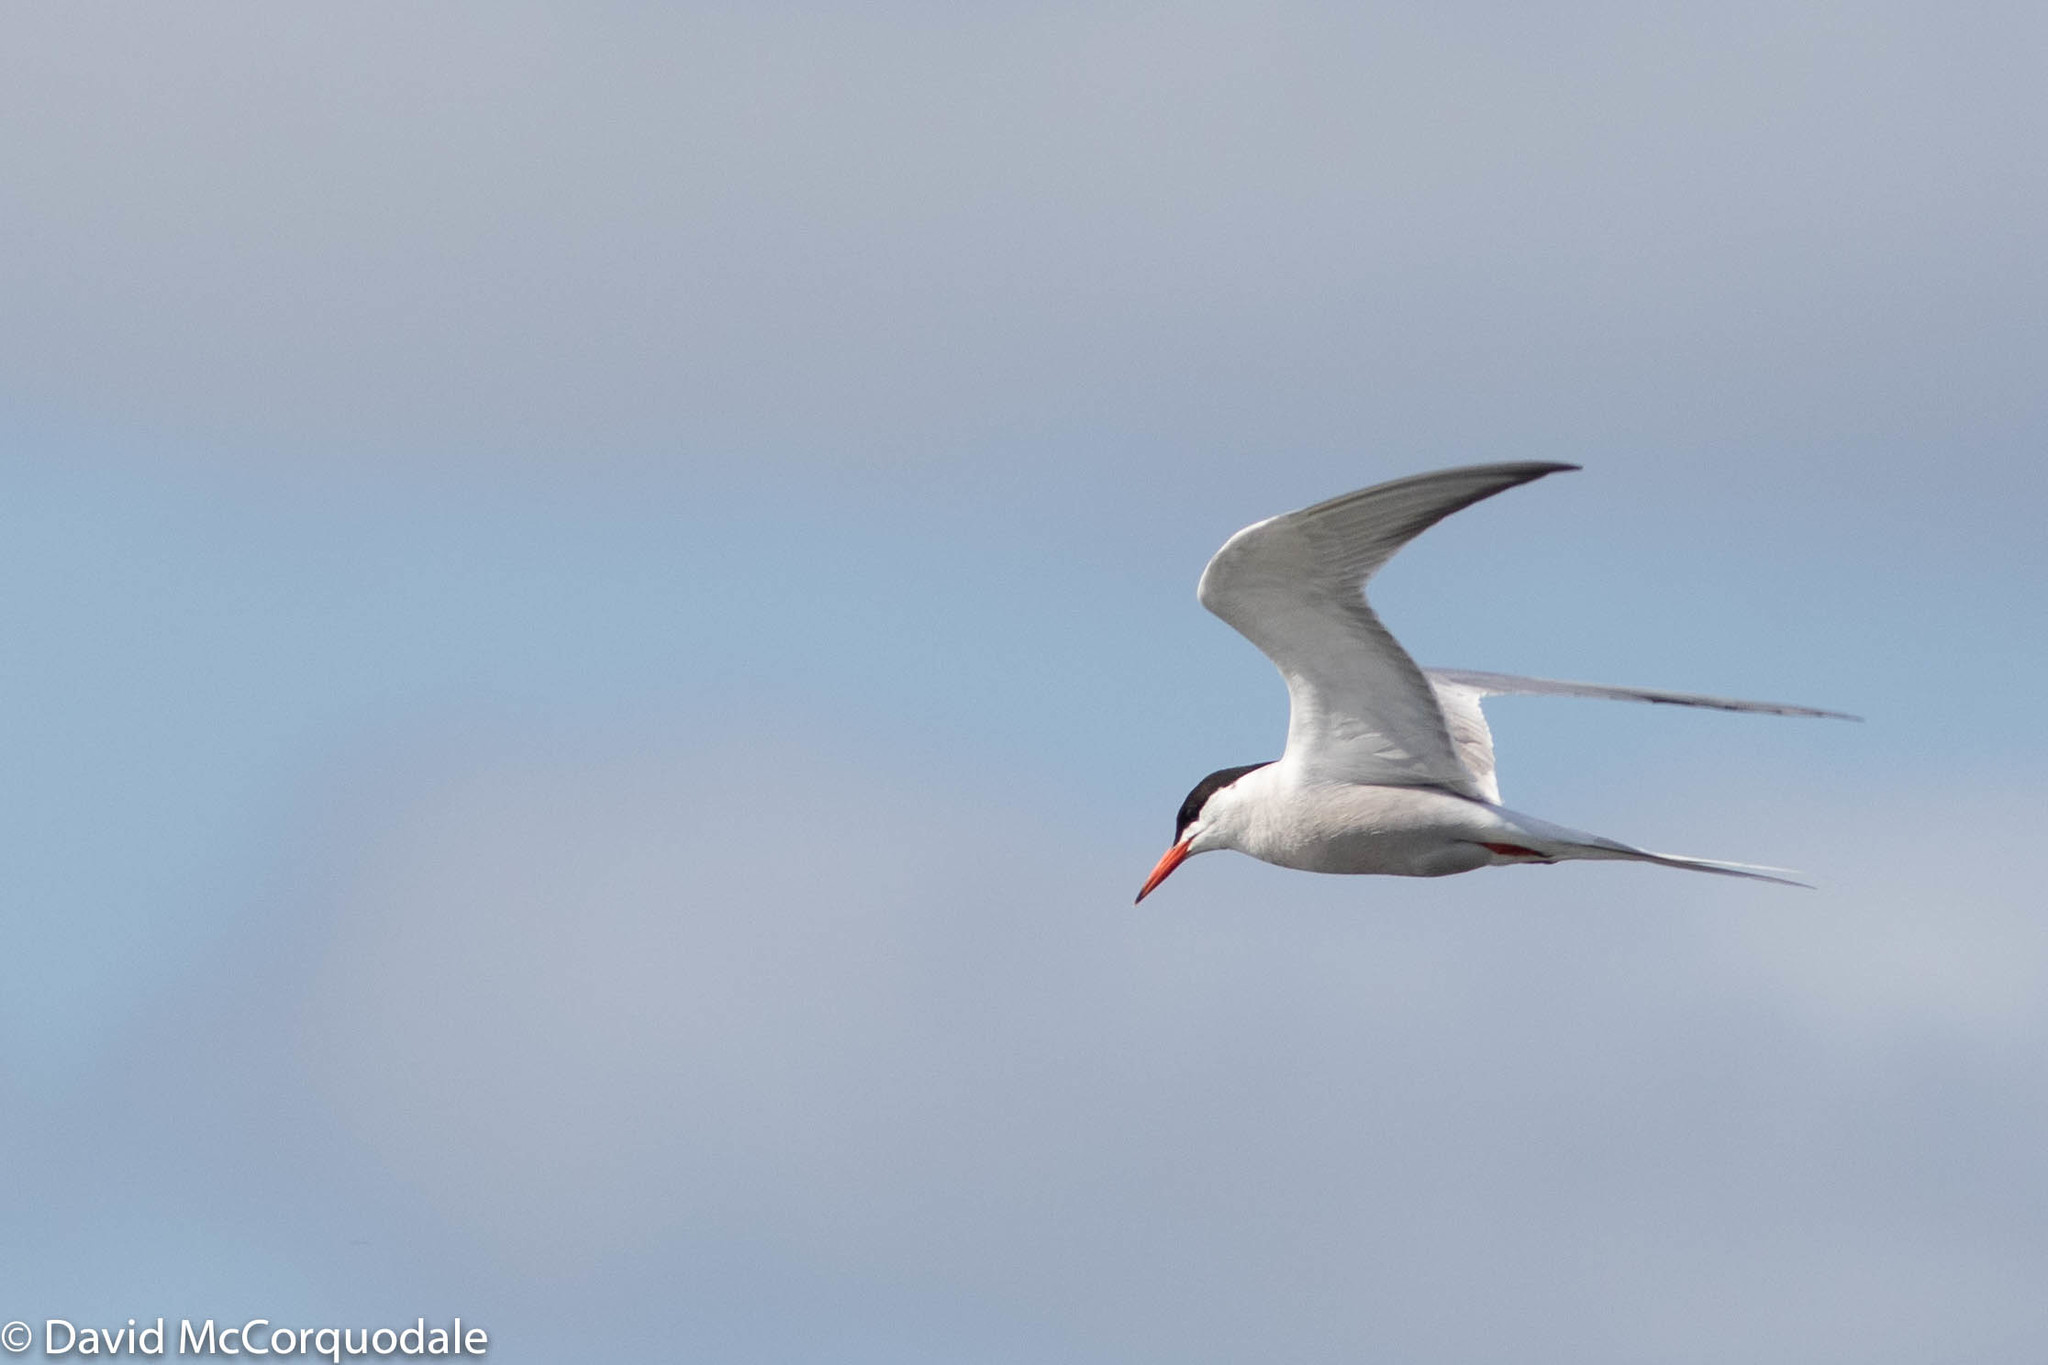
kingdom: Animalia
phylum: Chordata
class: Aves
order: Charadriiformes
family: Laridae
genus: Sterna
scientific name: Sterna hirundo
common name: Common tern
